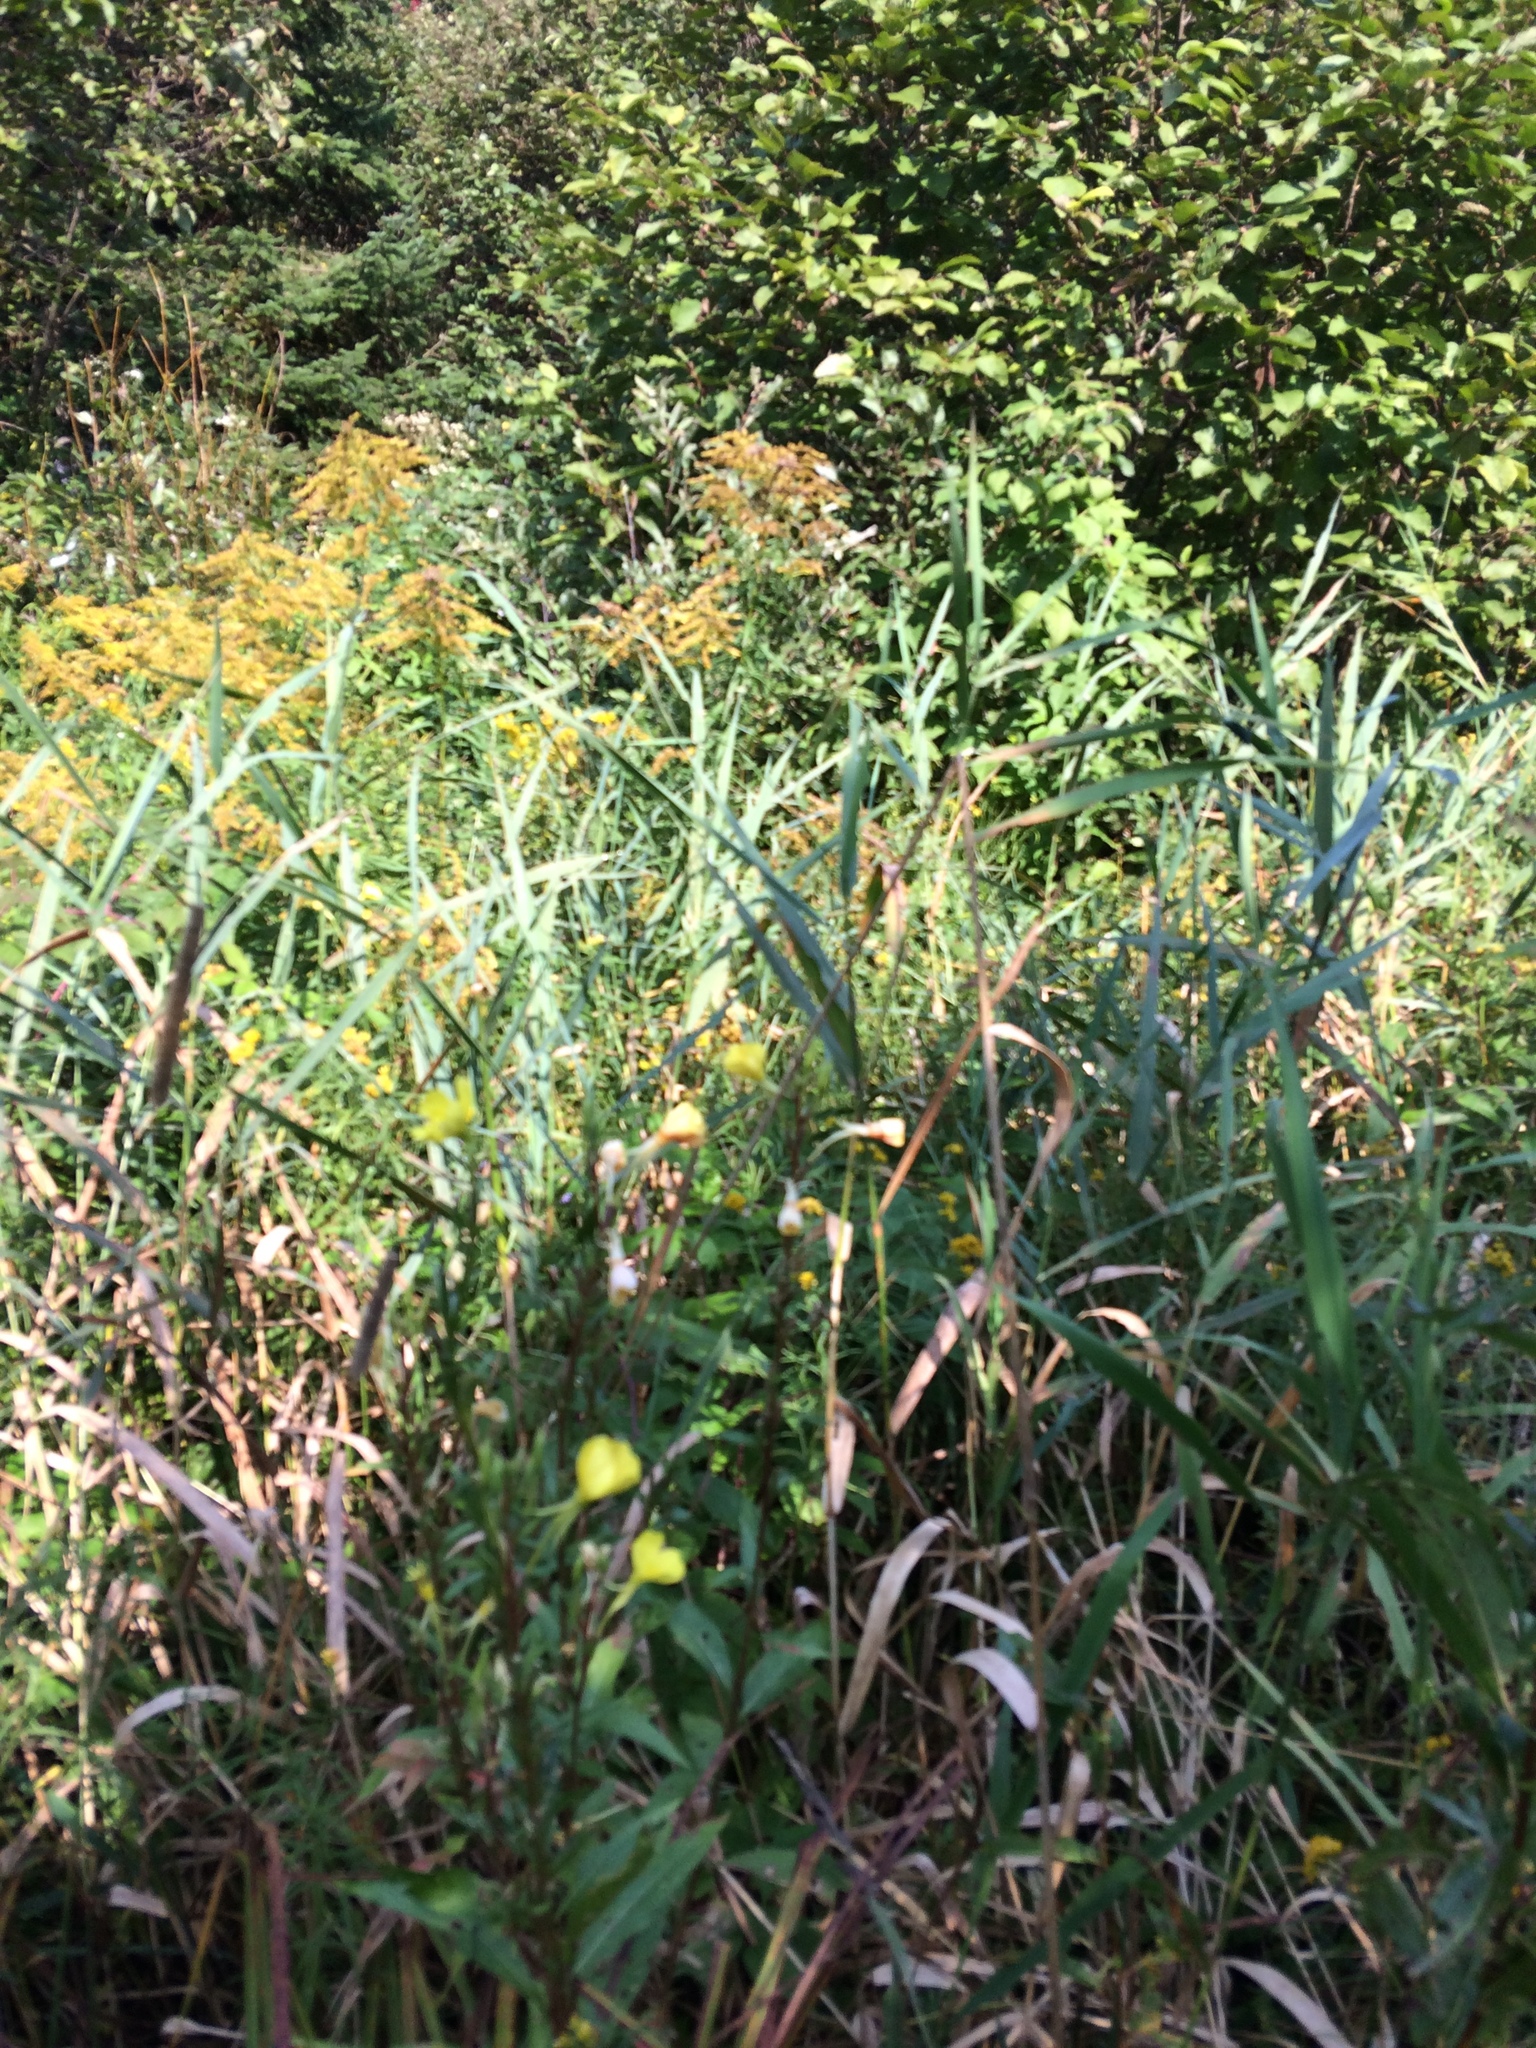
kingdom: Plantae
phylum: Tracheophyta
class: Liliopsida
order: Poales
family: Poaceae
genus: Phragmites
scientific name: Phragmites australis
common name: Common reed
